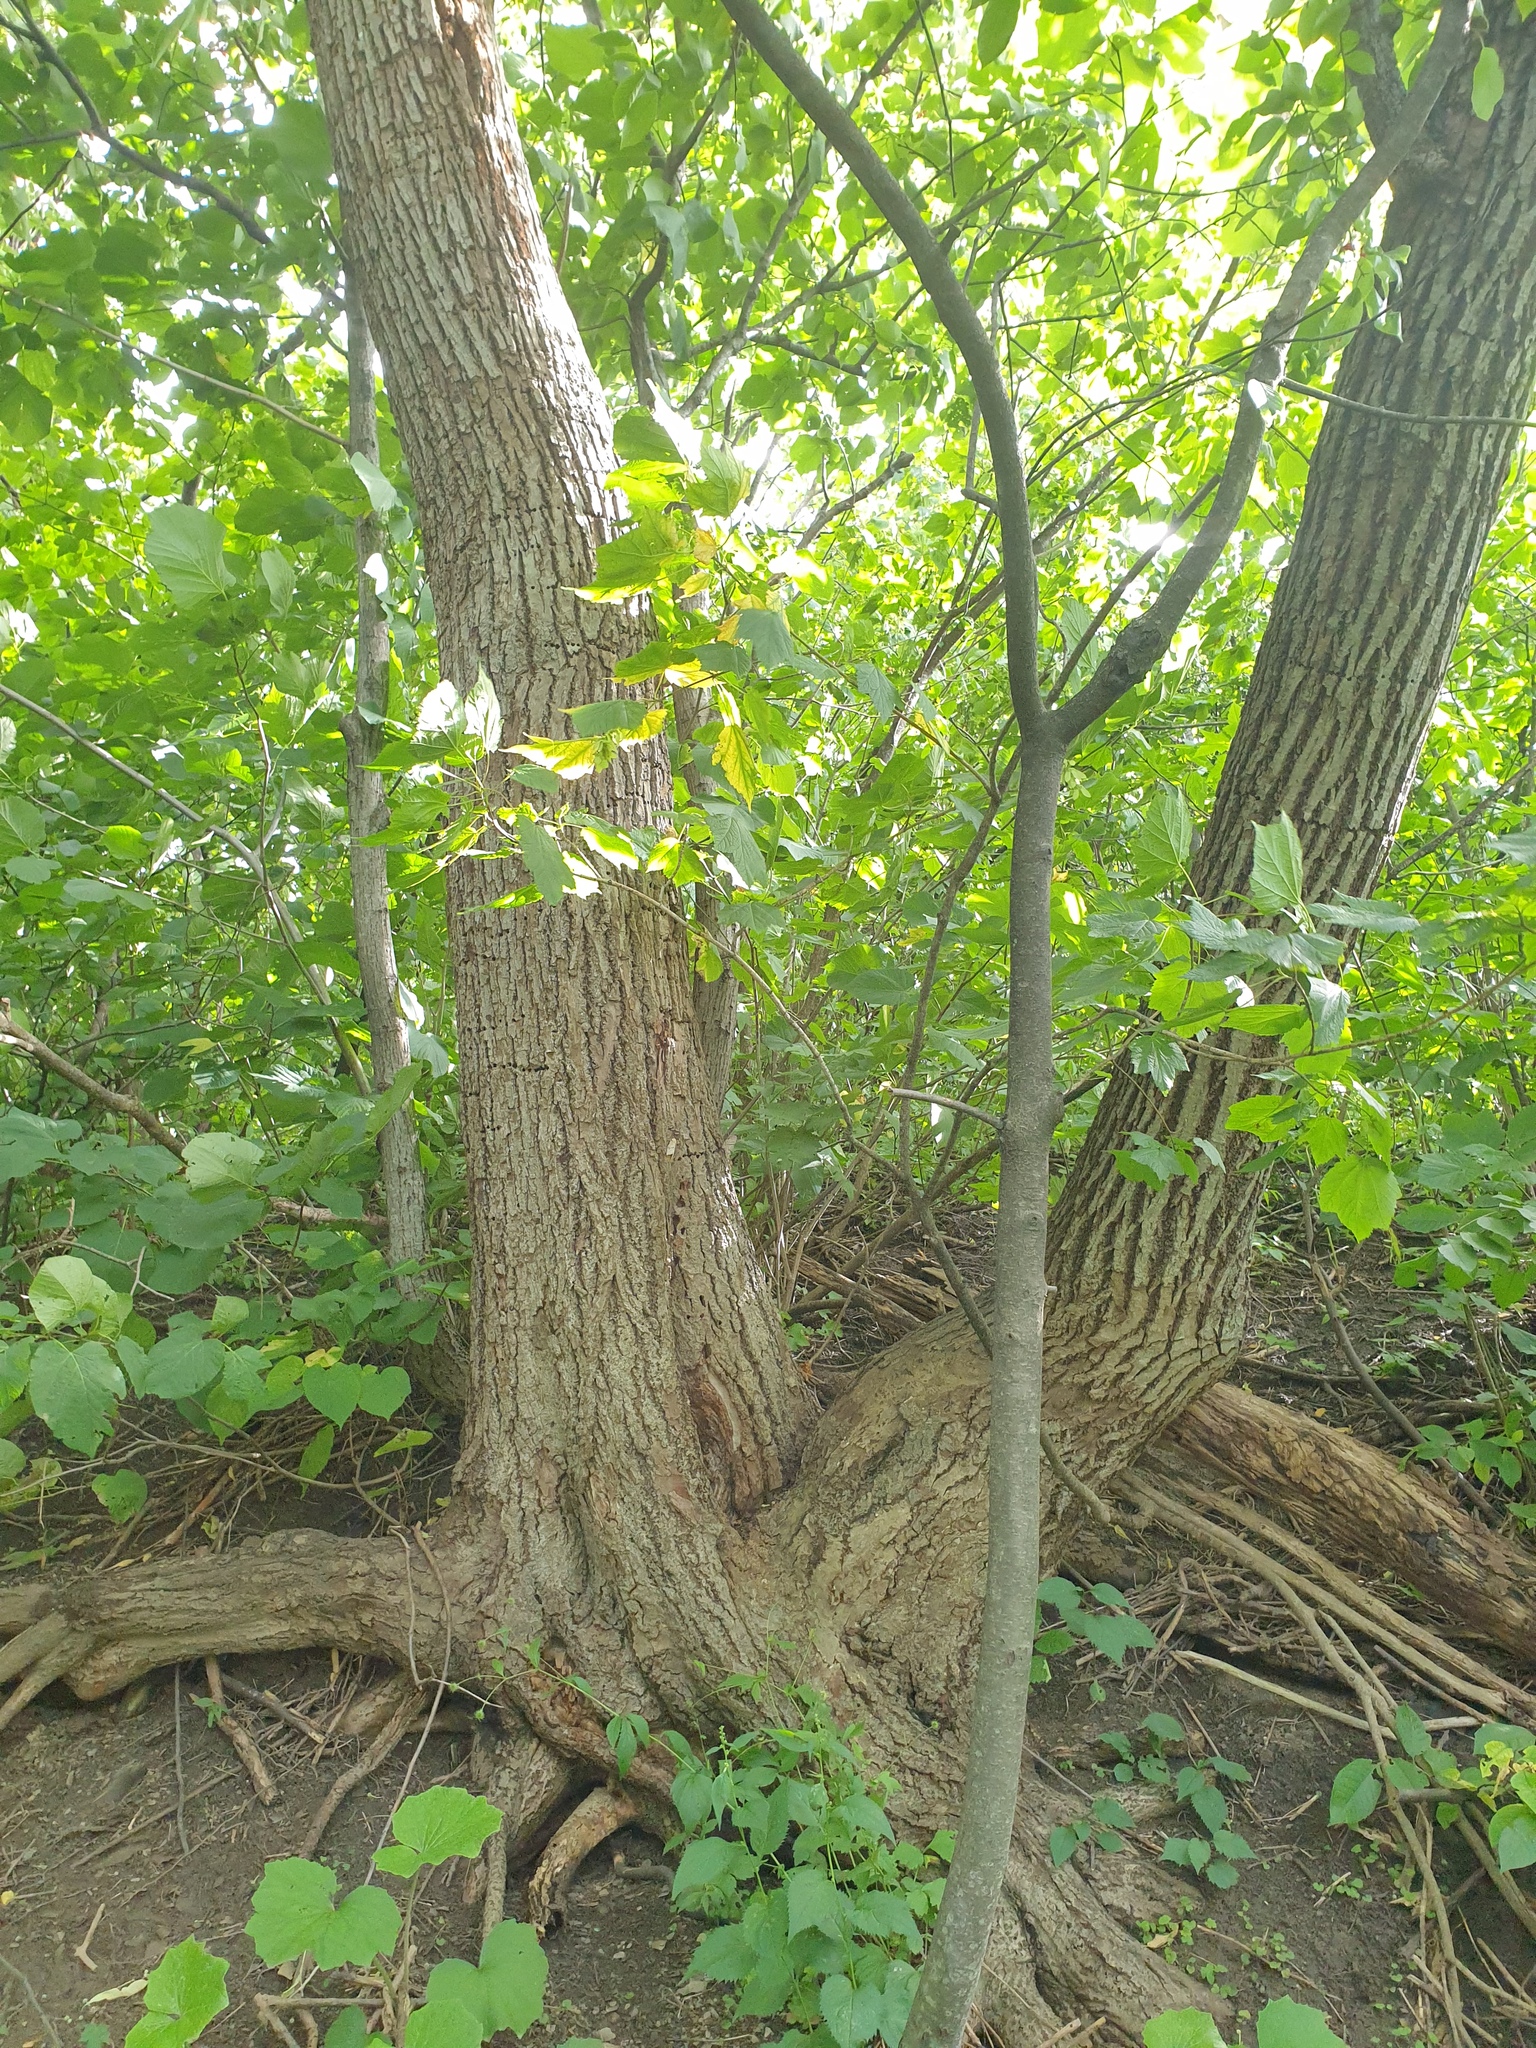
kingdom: Plantae
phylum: Tracheophyta
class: Magnoliopsida
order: Malvales
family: Malvaceae
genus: Tilia
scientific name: Tilia americana
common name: Basswood
